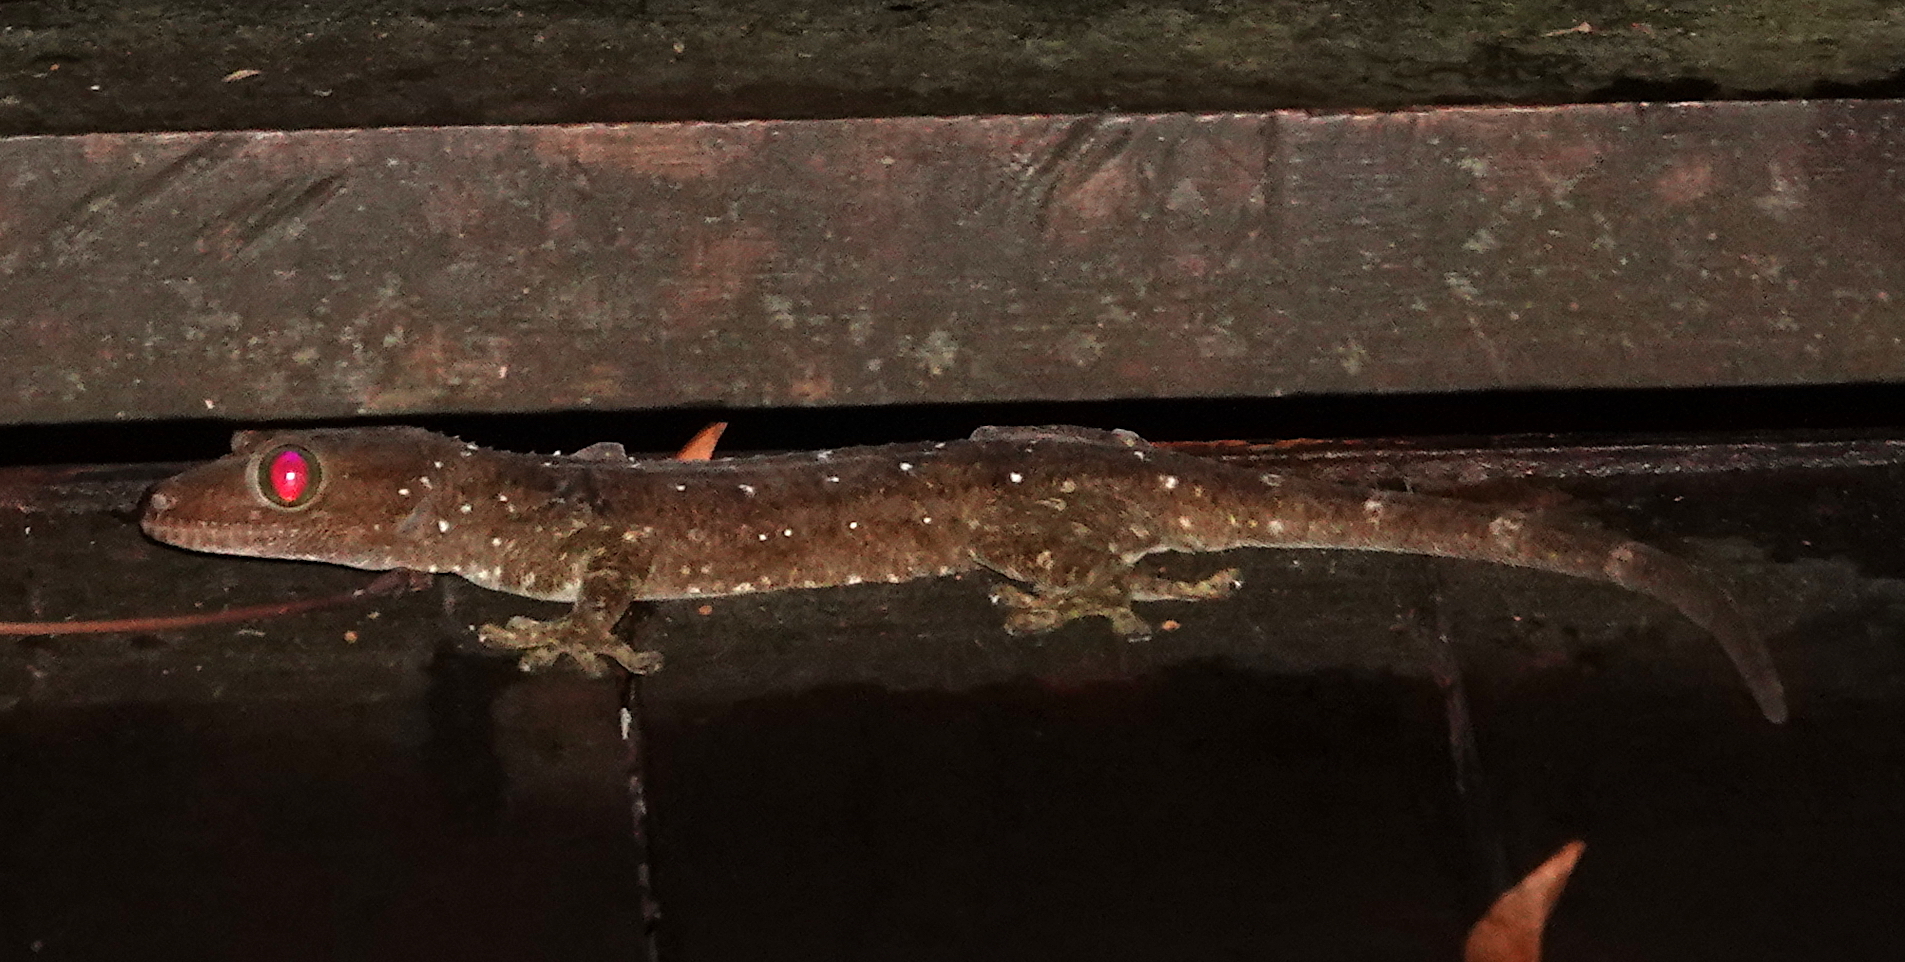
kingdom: Animalia
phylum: Chordata
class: Squamata
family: Gekkonidae
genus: Gekko
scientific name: Gekko albofasciolatus
